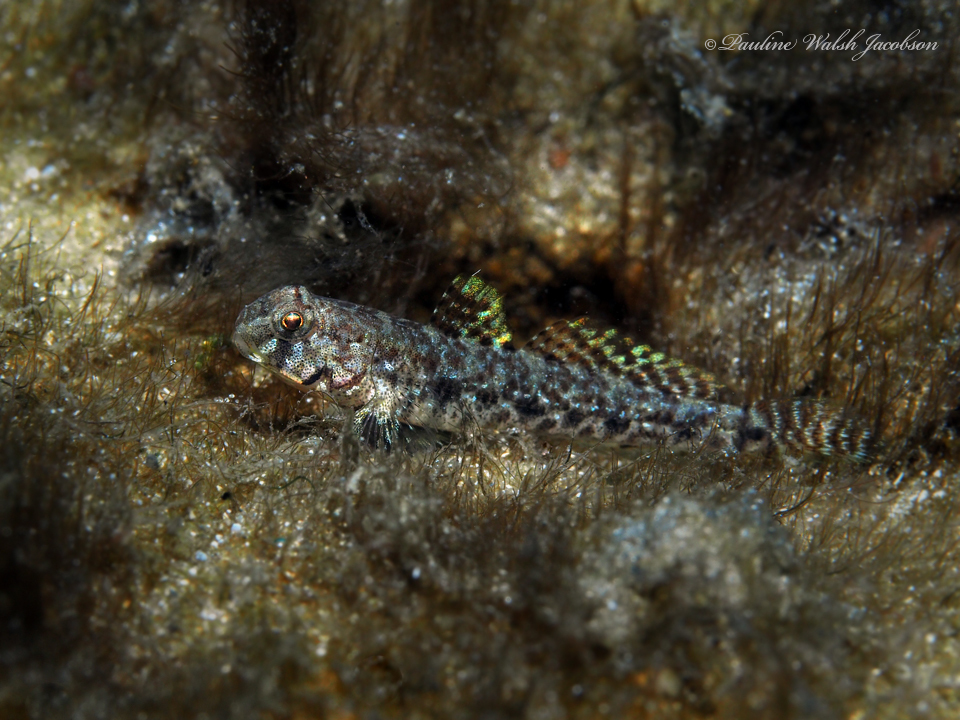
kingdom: Animalia
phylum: Chordata
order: Perciformes
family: Gobiidae
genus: Ctenogobius
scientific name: Ctenogobius stigmaturus
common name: Spottail goby
